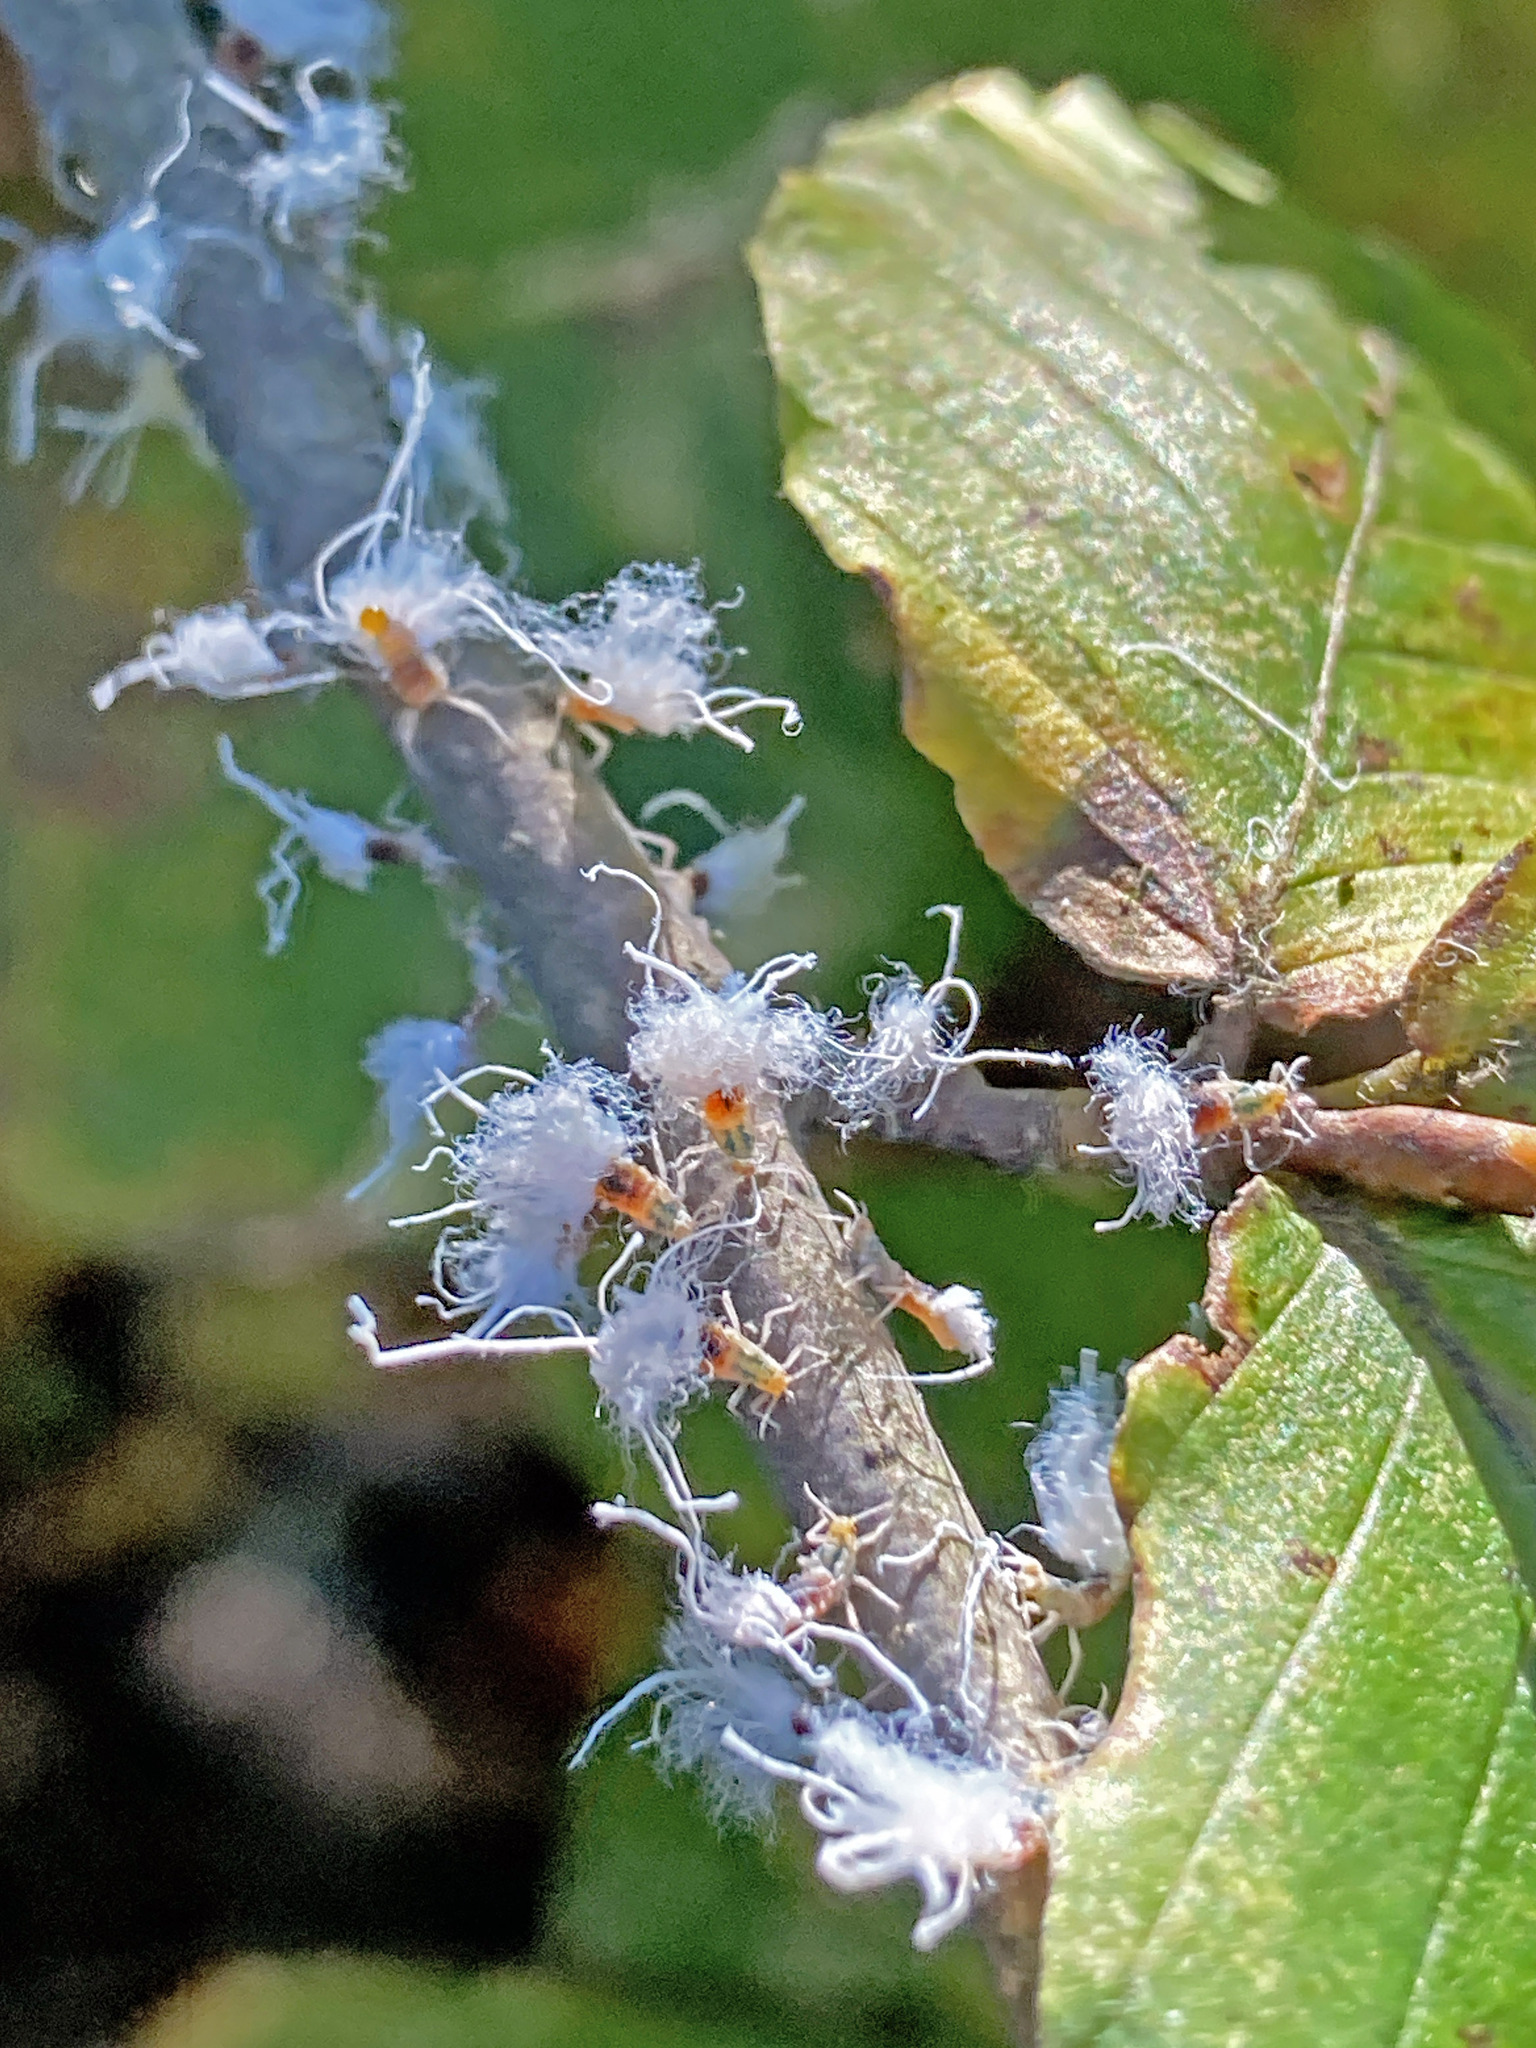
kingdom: Animalia
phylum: Arthropoda
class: Insecta
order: Hemiptera
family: Aphididae
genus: Grylloprociphilus
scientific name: Grylloprociphilus imbricator
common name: Beech blight aphid
